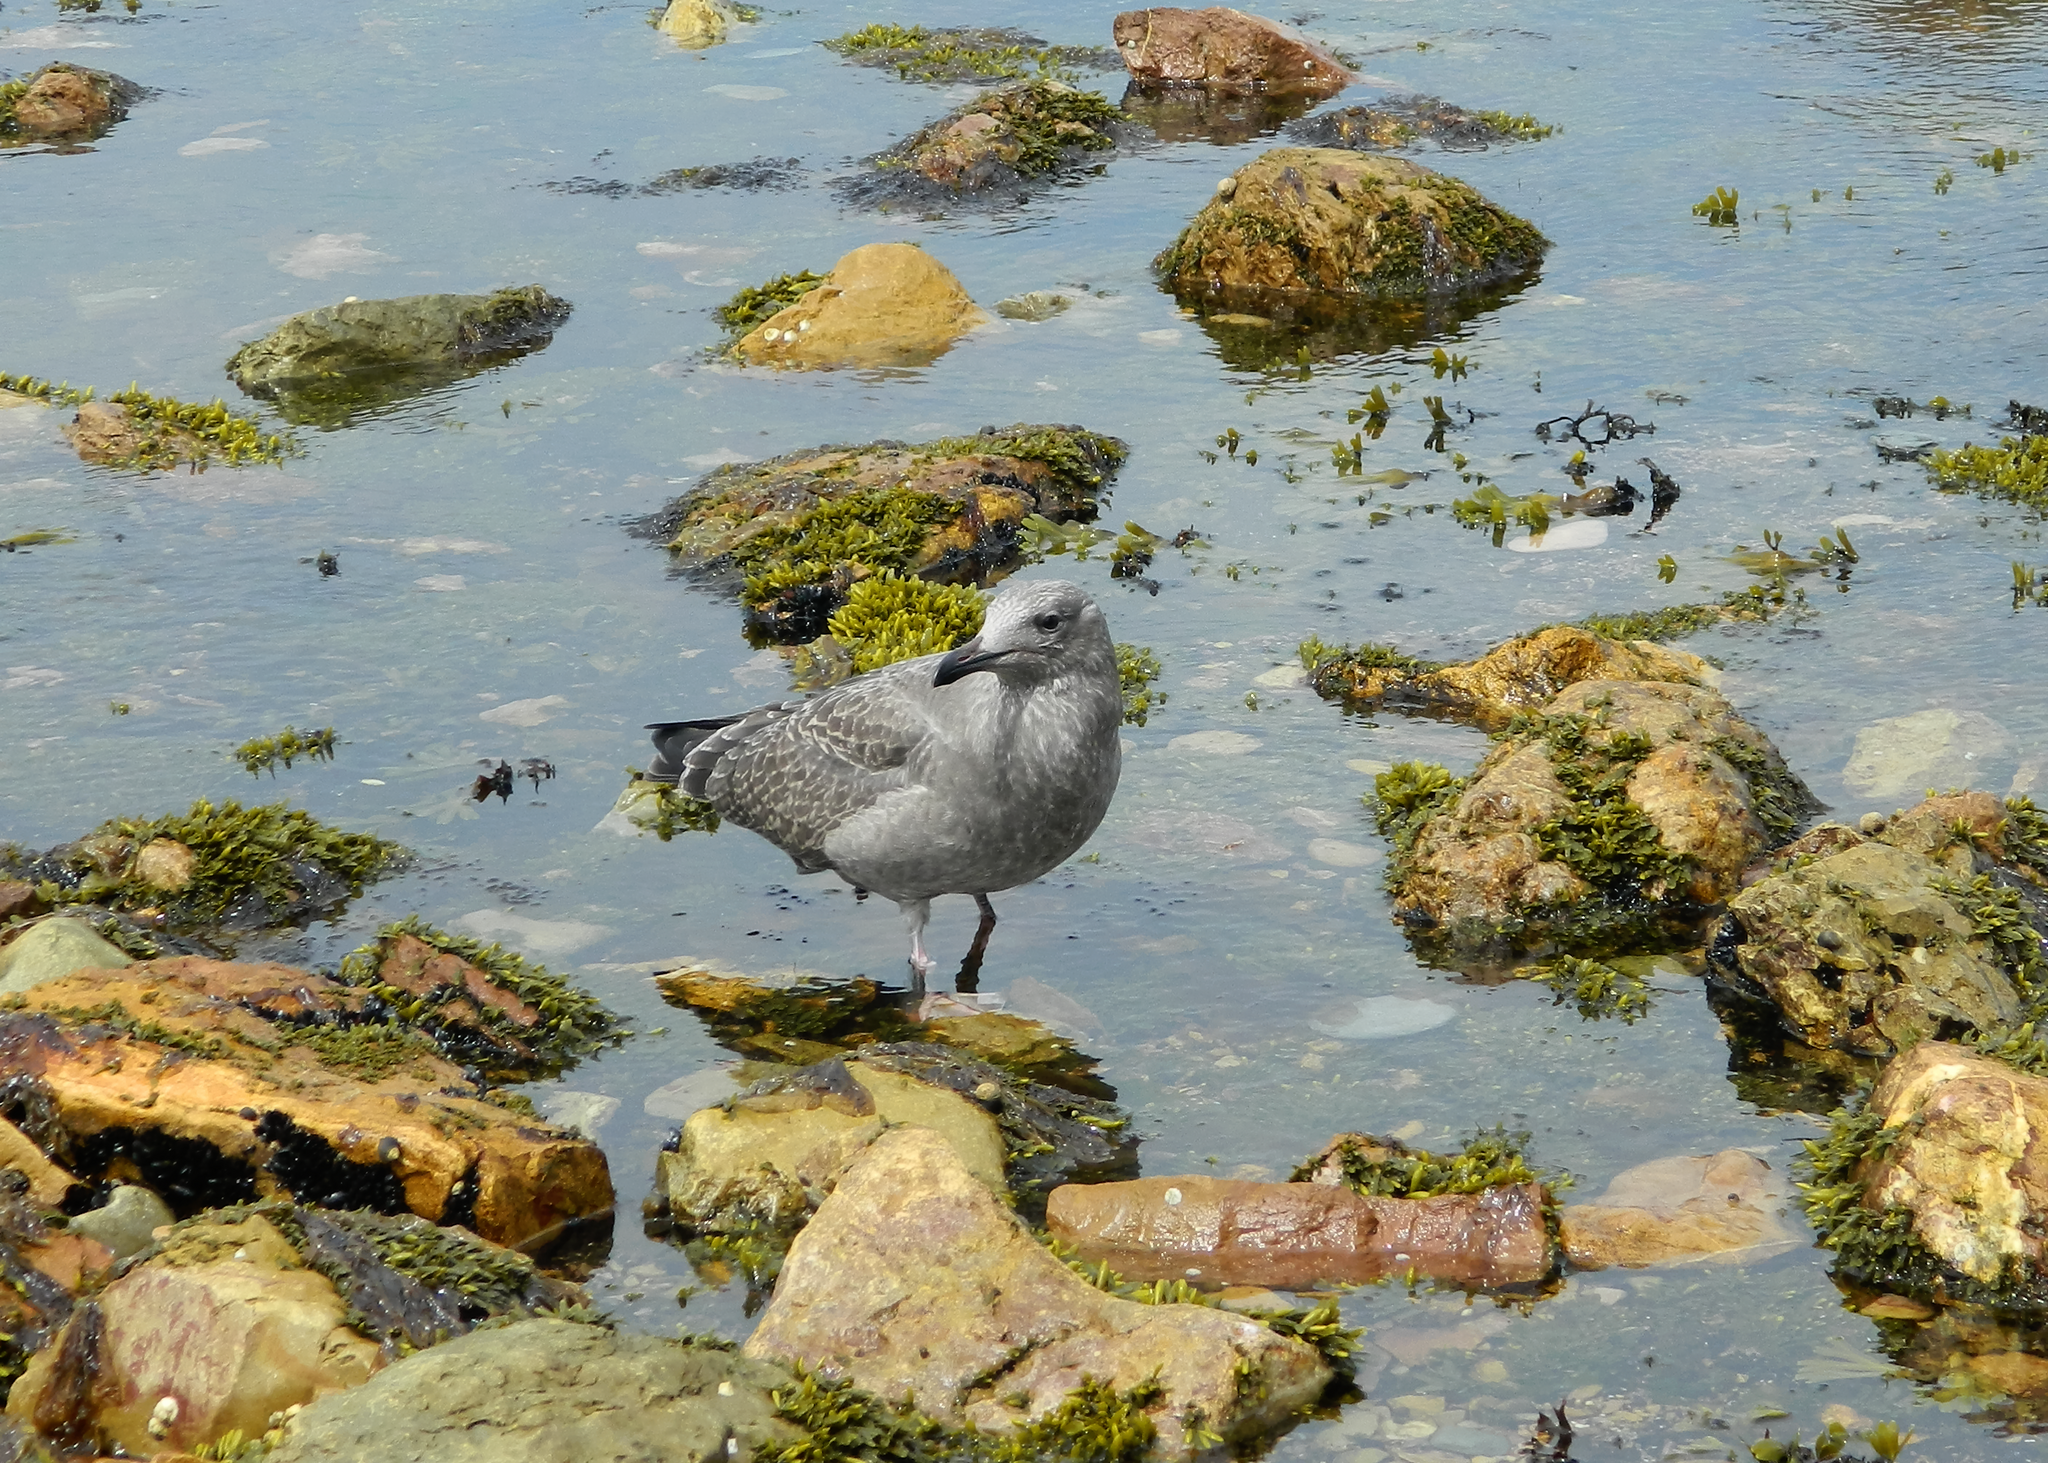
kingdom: Animalia
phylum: Chordata
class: Aves
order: Charadriiformes
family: Laridae
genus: Larus
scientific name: Larus argentatus
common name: Herring gull
